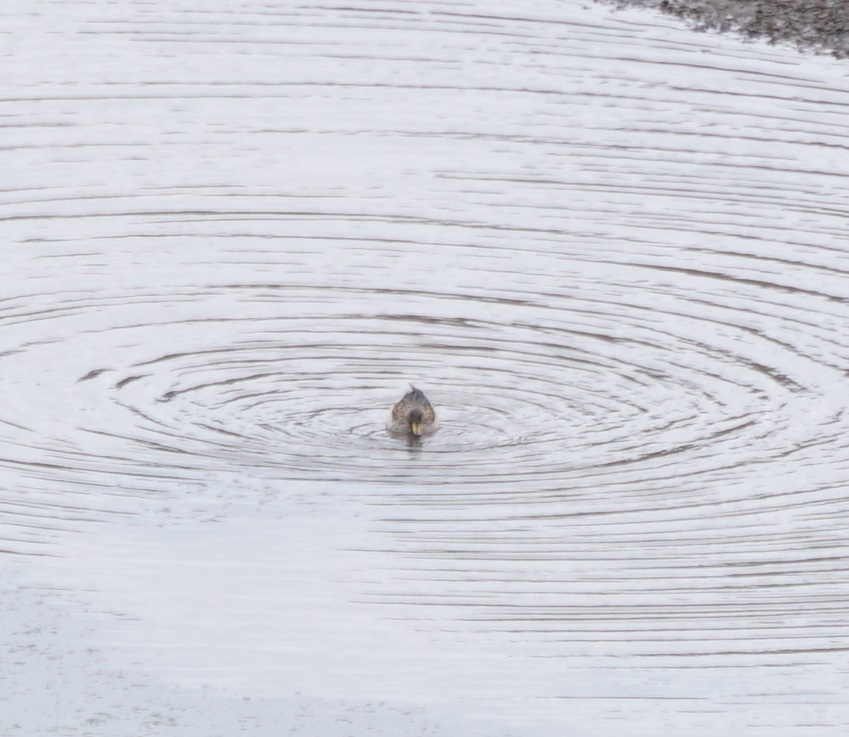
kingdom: Animalia
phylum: Chordata
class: Aves
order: Anseriformes
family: Anatidae
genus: Anas
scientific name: Anas flavirostris
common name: Yellow-billed teal
